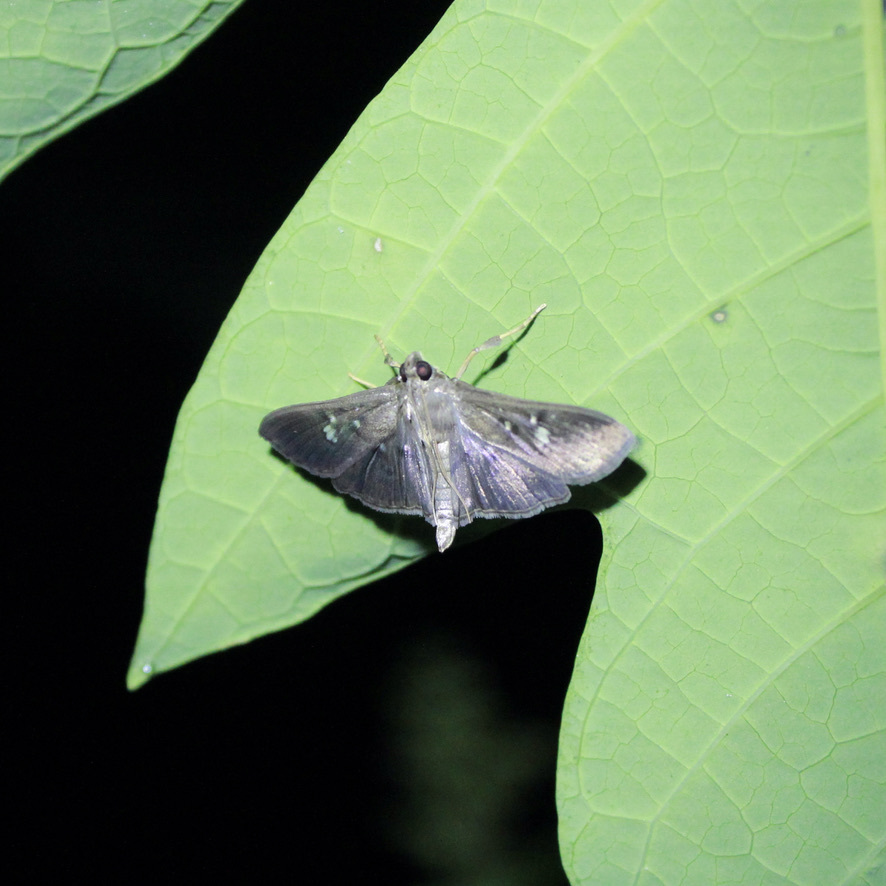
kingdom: Animalia
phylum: Arthropoda
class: Insecta
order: Lepidoptera
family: Crambidae
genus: Microthyris
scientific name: Microthyris prolongalis
